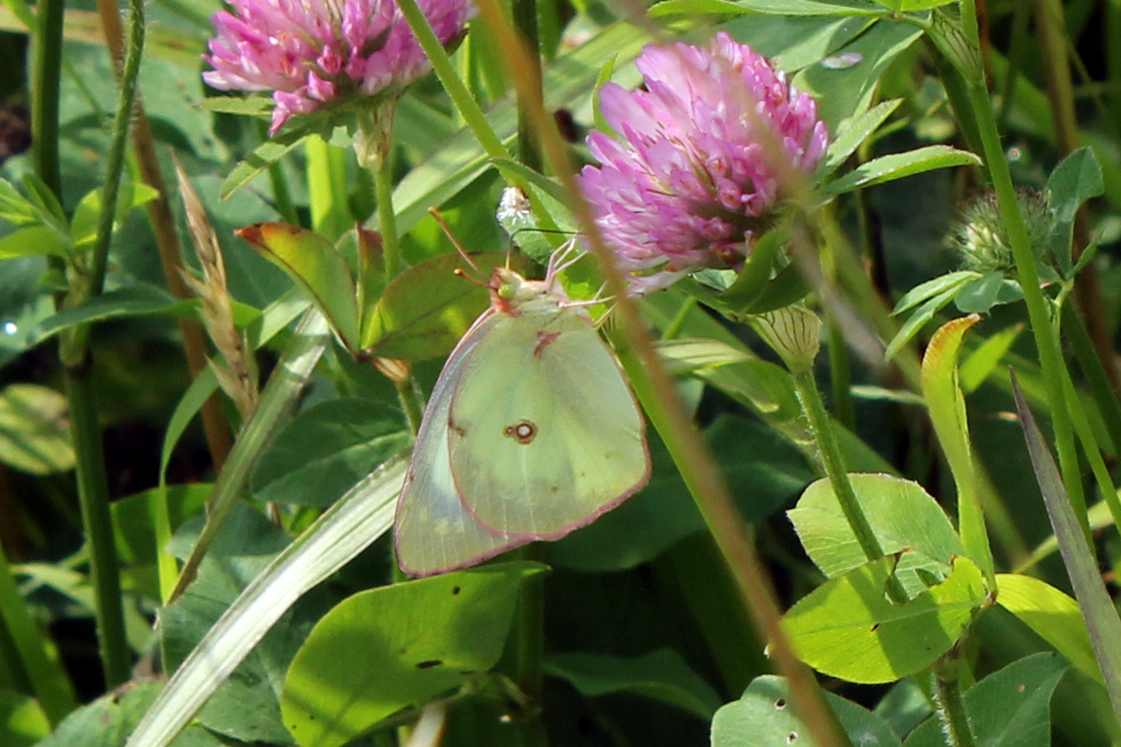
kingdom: Animalia
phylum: Arthropoda
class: Insecta
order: Lepidoptera
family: Pieridae
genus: Colias
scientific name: Colias eurytheme
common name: Alfalfa butterfly
